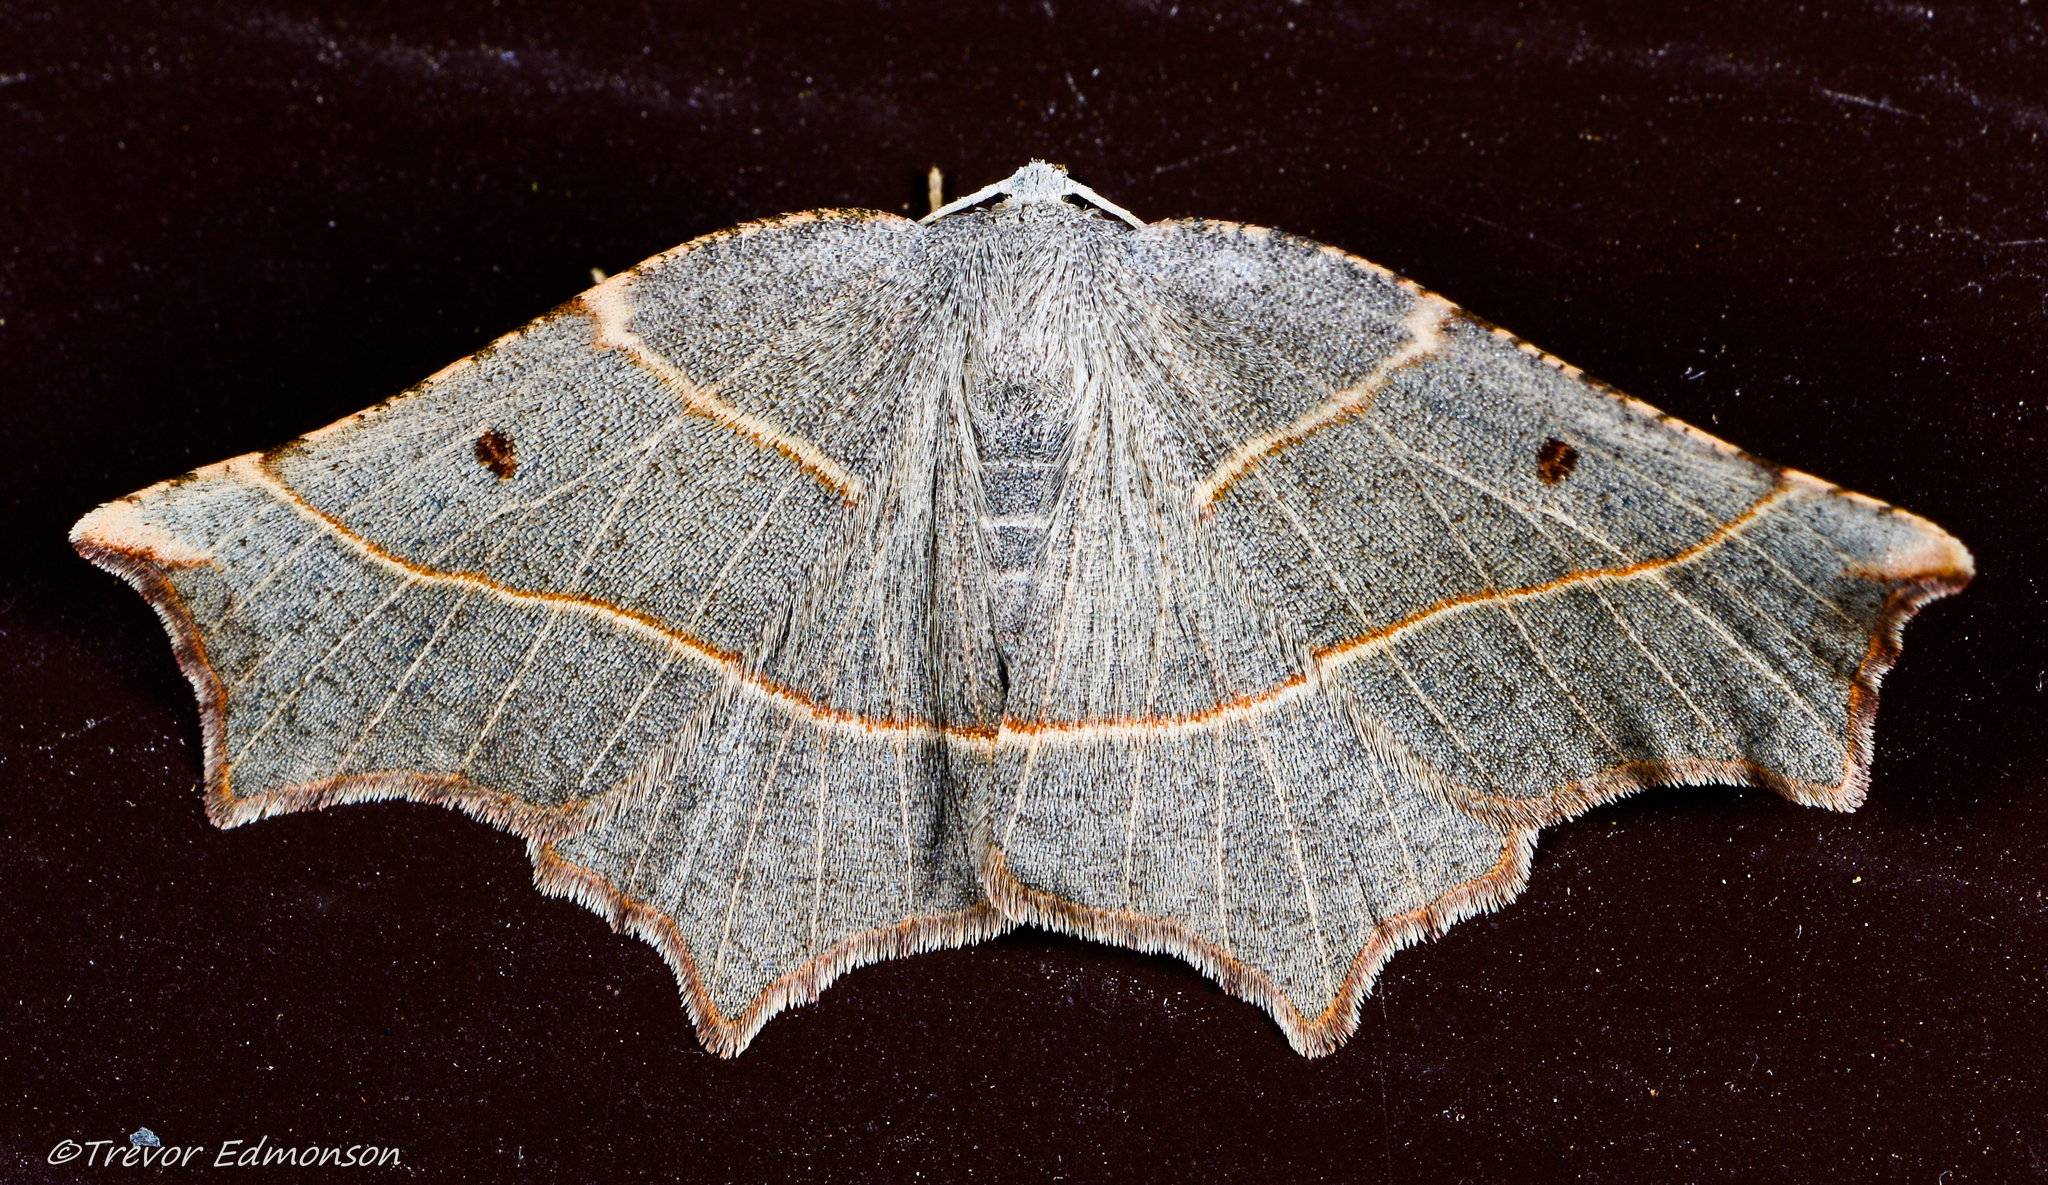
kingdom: Animalia
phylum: Arthropoda
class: Insecta
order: Lepidoptera
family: Geometridae
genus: Metanema
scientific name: Metanema inatomaria
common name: Pale metanema
